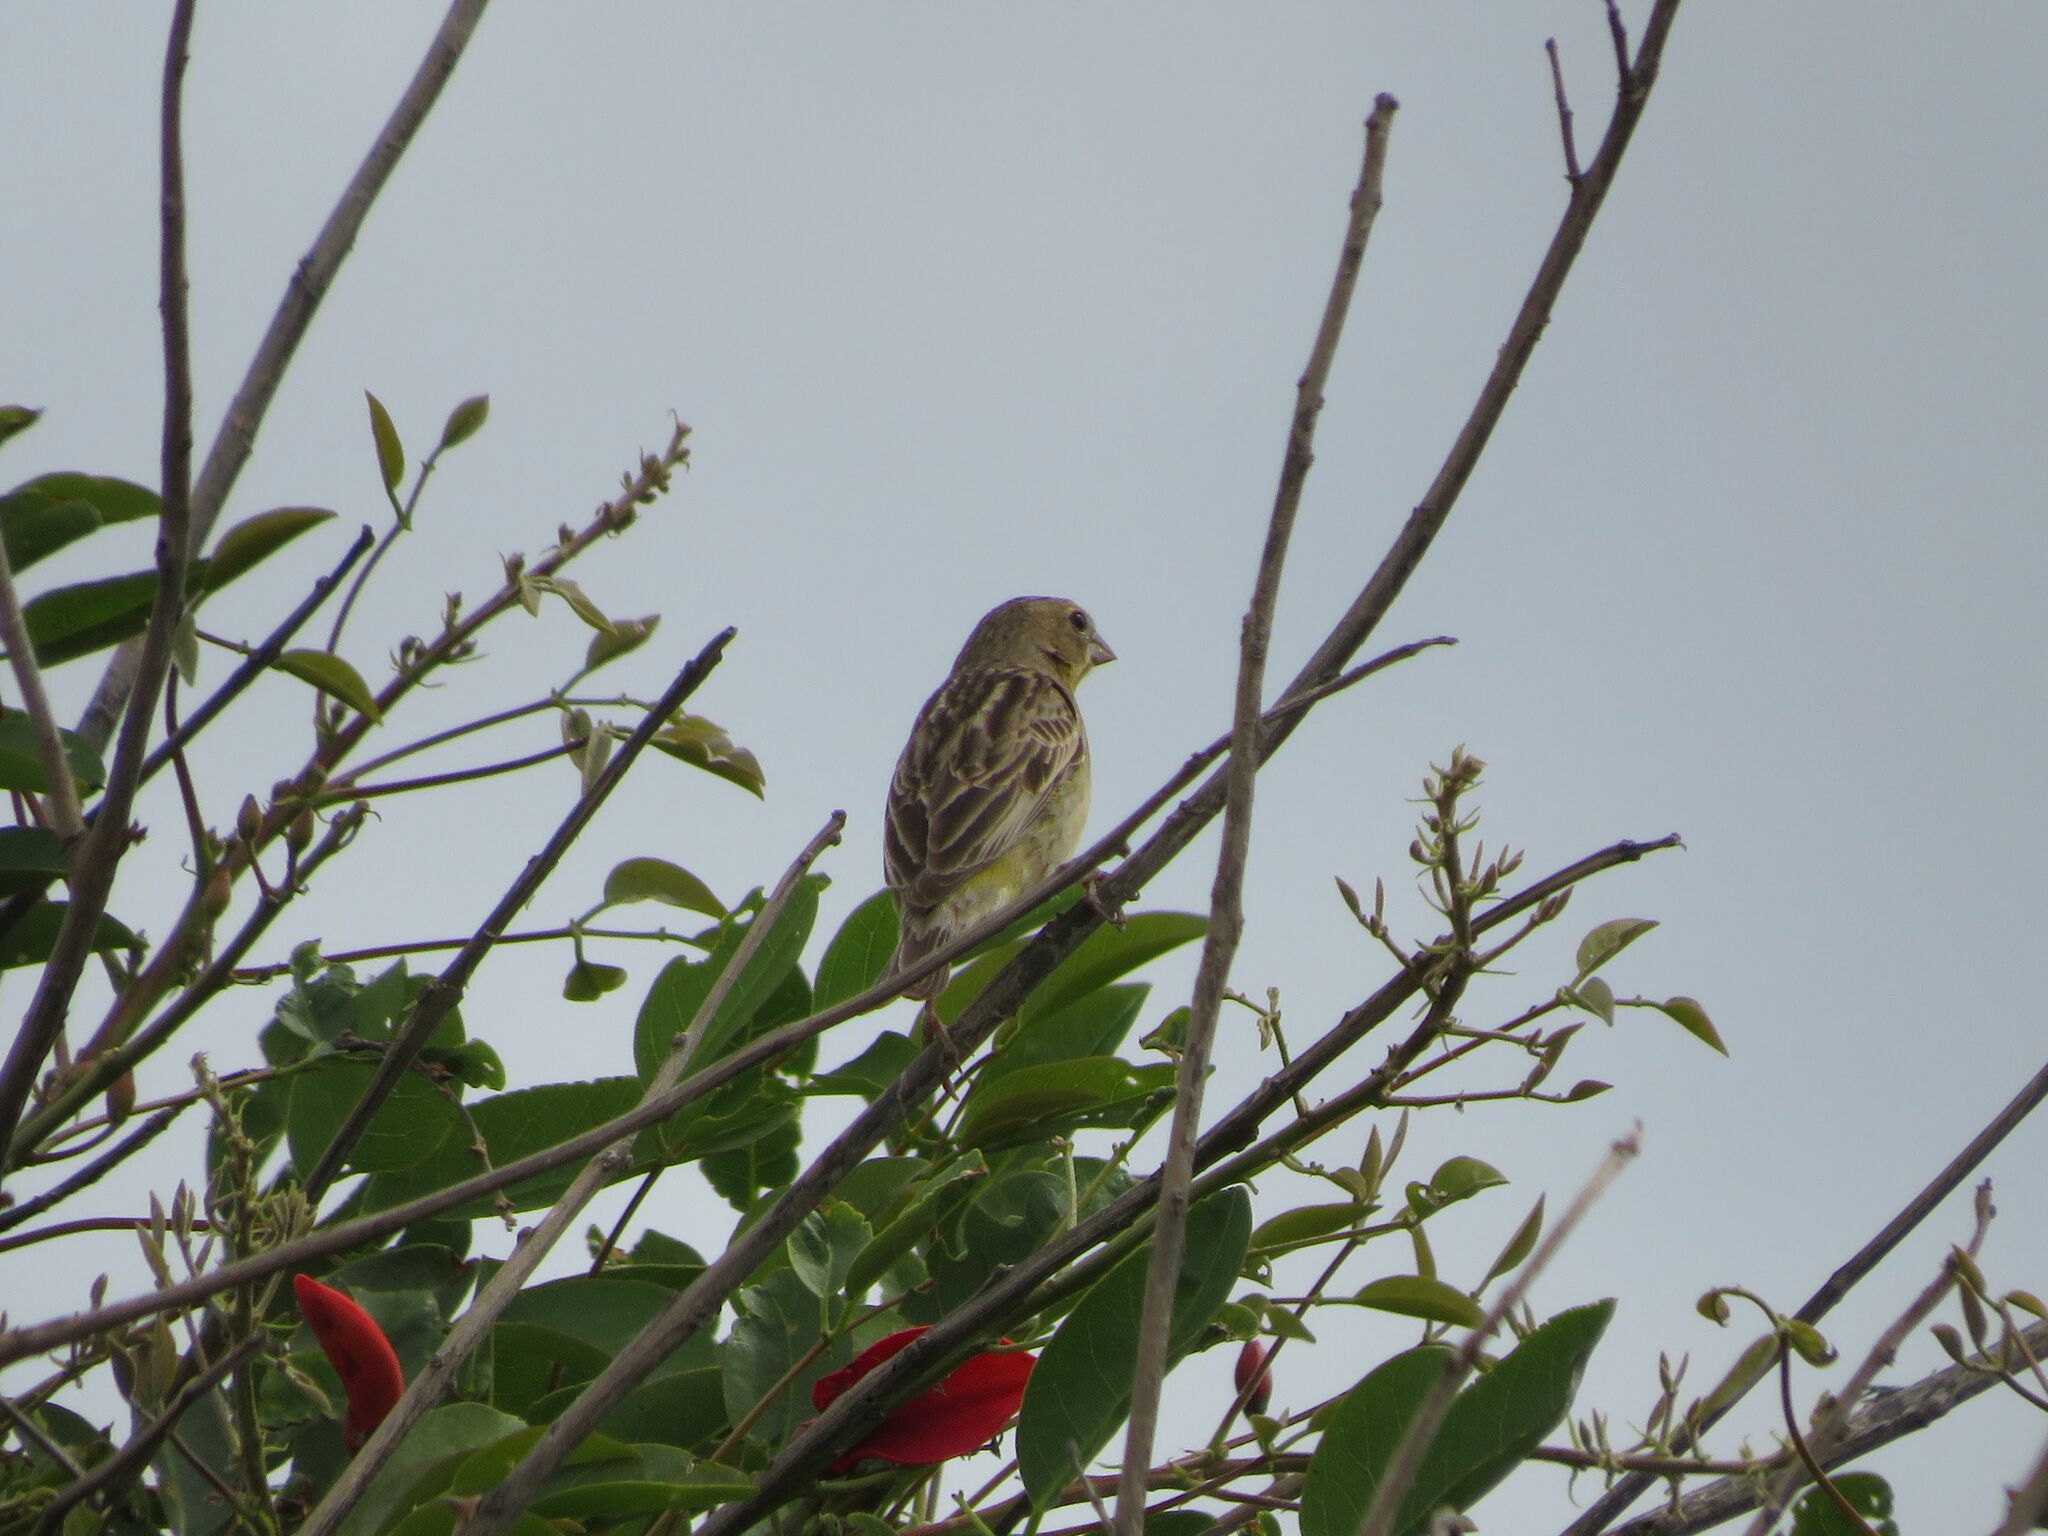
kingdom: Animalia
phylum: Chordata
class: Aves
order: Passeriformes
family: Thraupidae
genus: Sicalis
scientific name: Sicalis luteola
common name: Grassland yellow-finch
